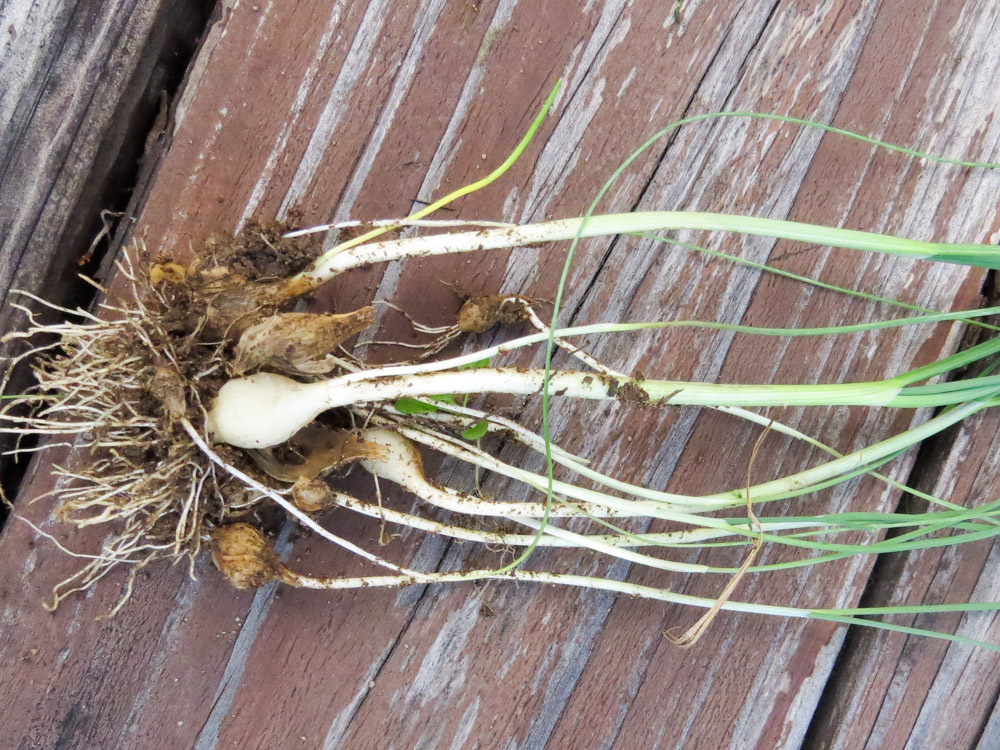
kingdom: Plantae
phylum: Tracheophyta
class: Liliopsida
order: Asparagales
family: Amaryllidaceae
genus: Allium
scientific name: Allium vineale
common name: Crow garlic
